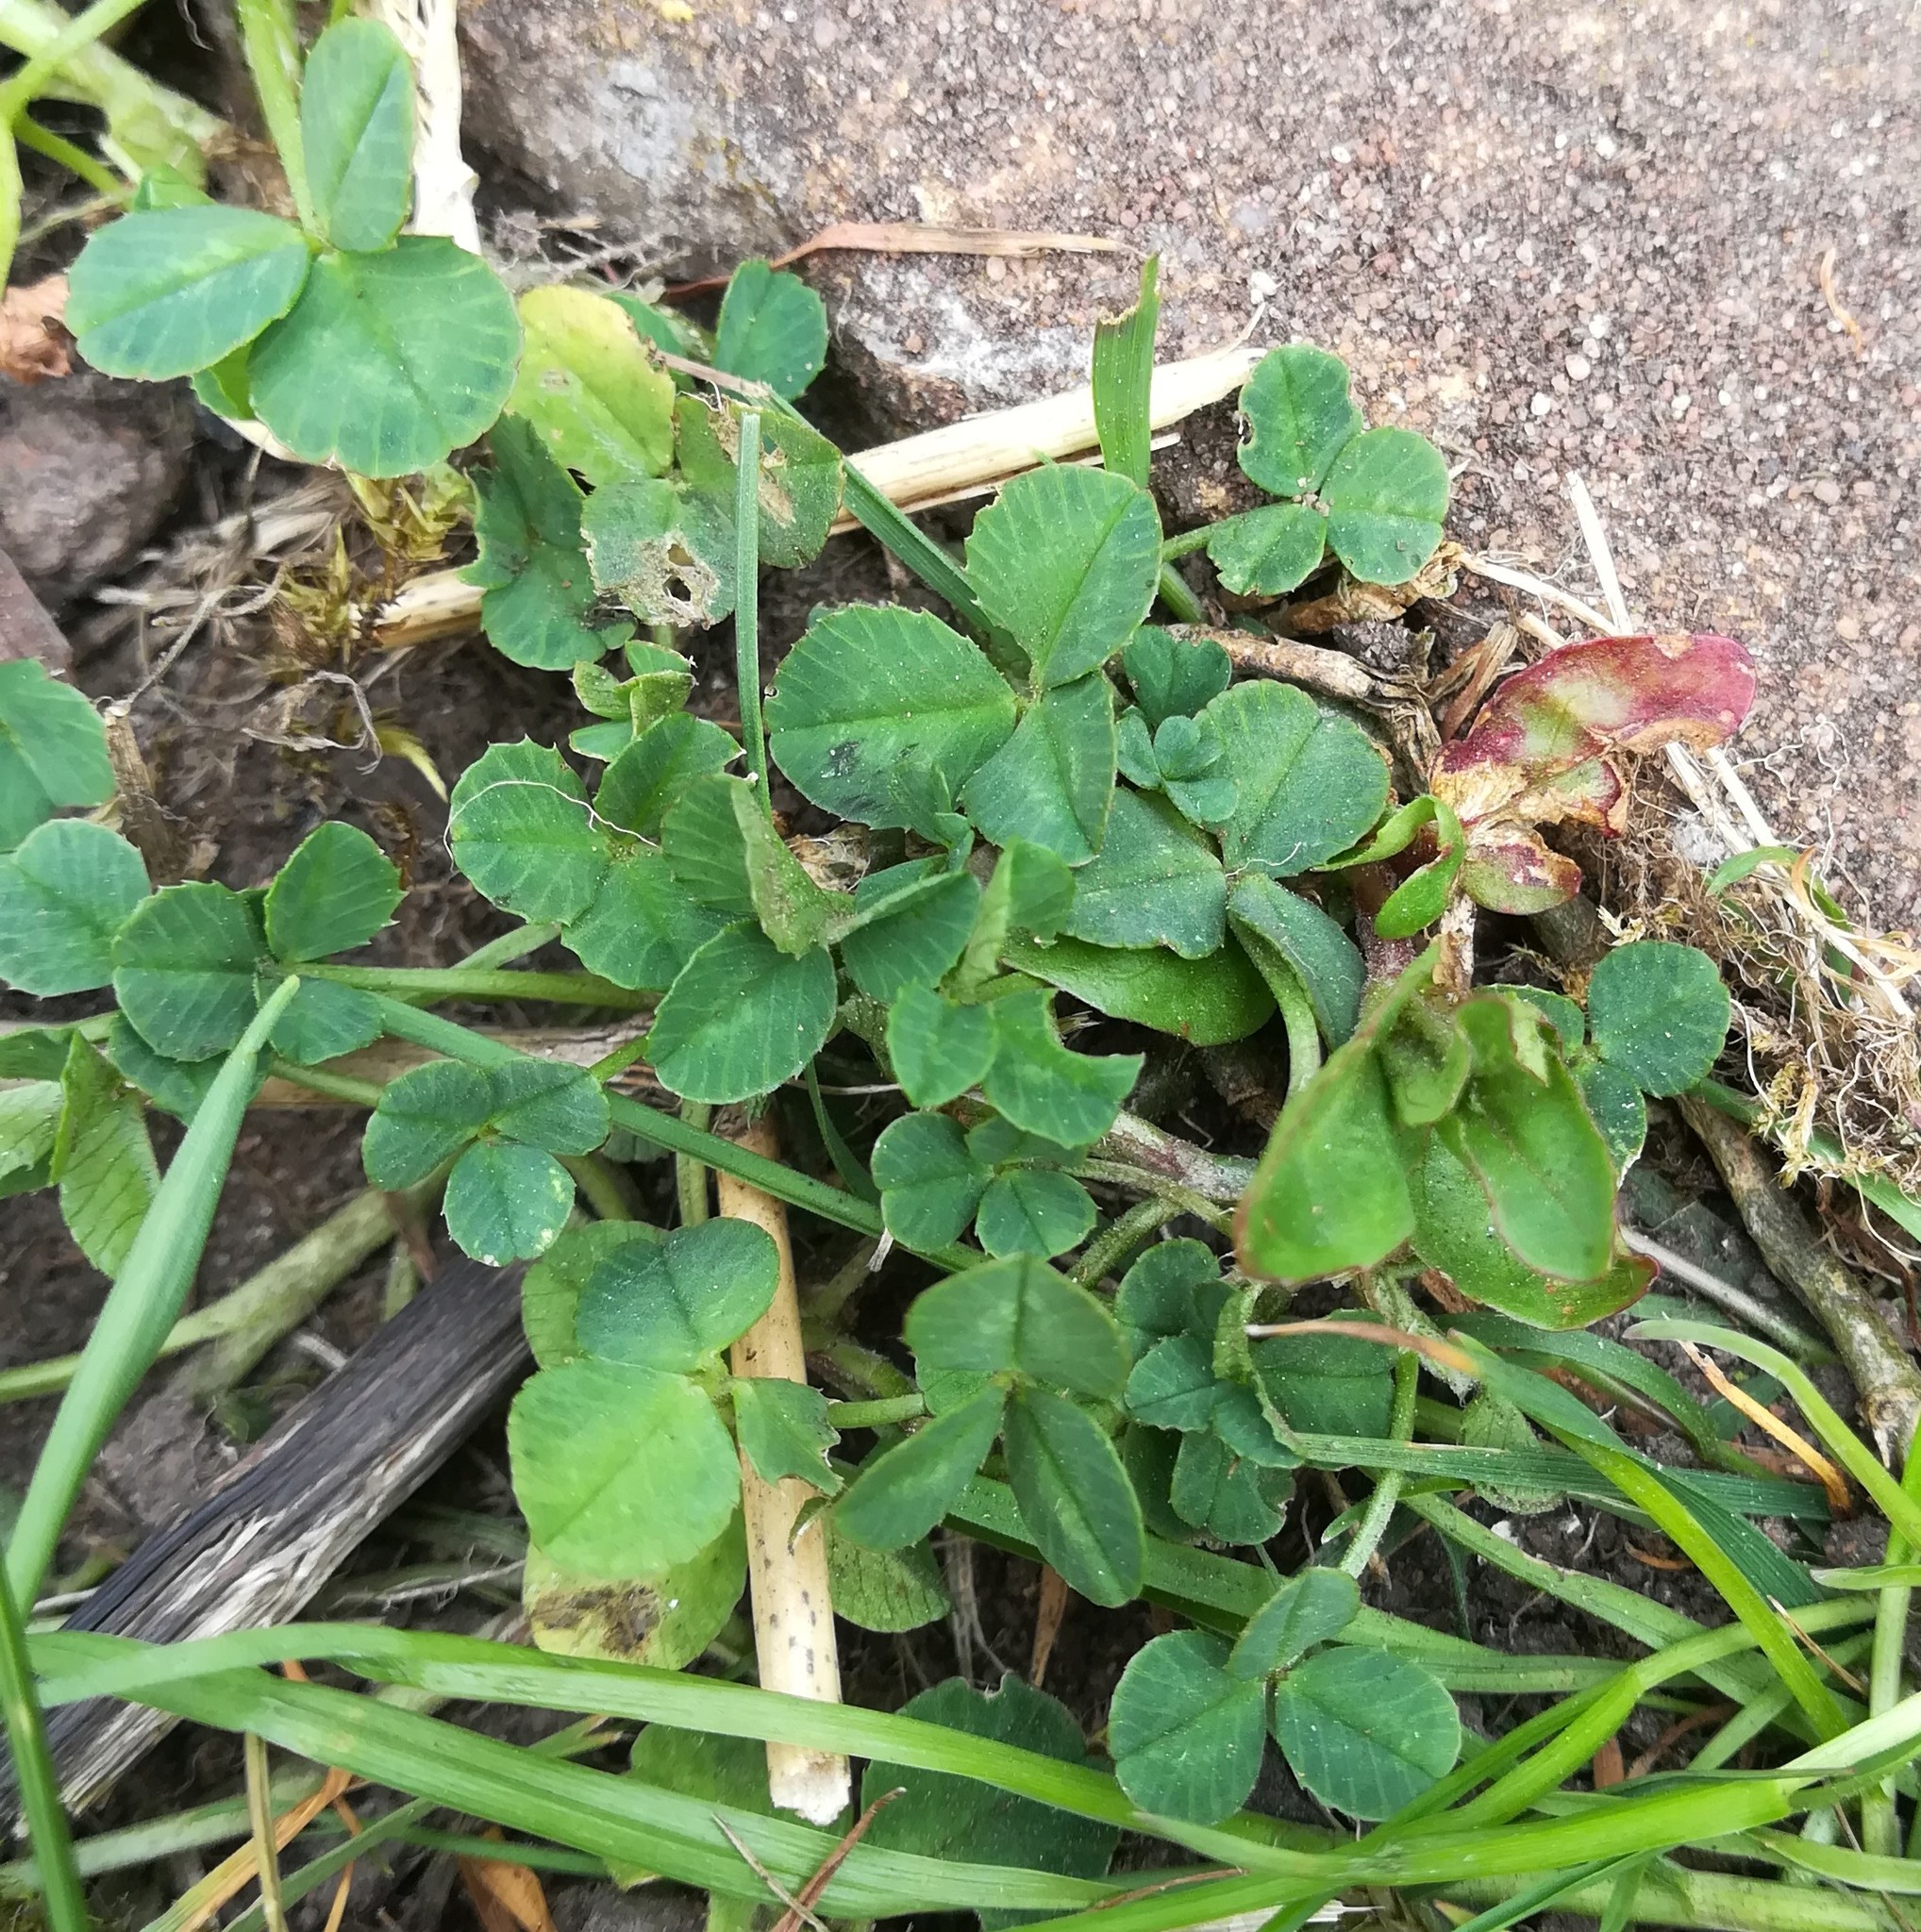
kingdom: Plantae
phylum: Tracheophyta
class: Magnoliopsida
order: Fabales
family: Fabaceae
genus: Trifolium
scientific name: Trifolium repens
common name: White clover
